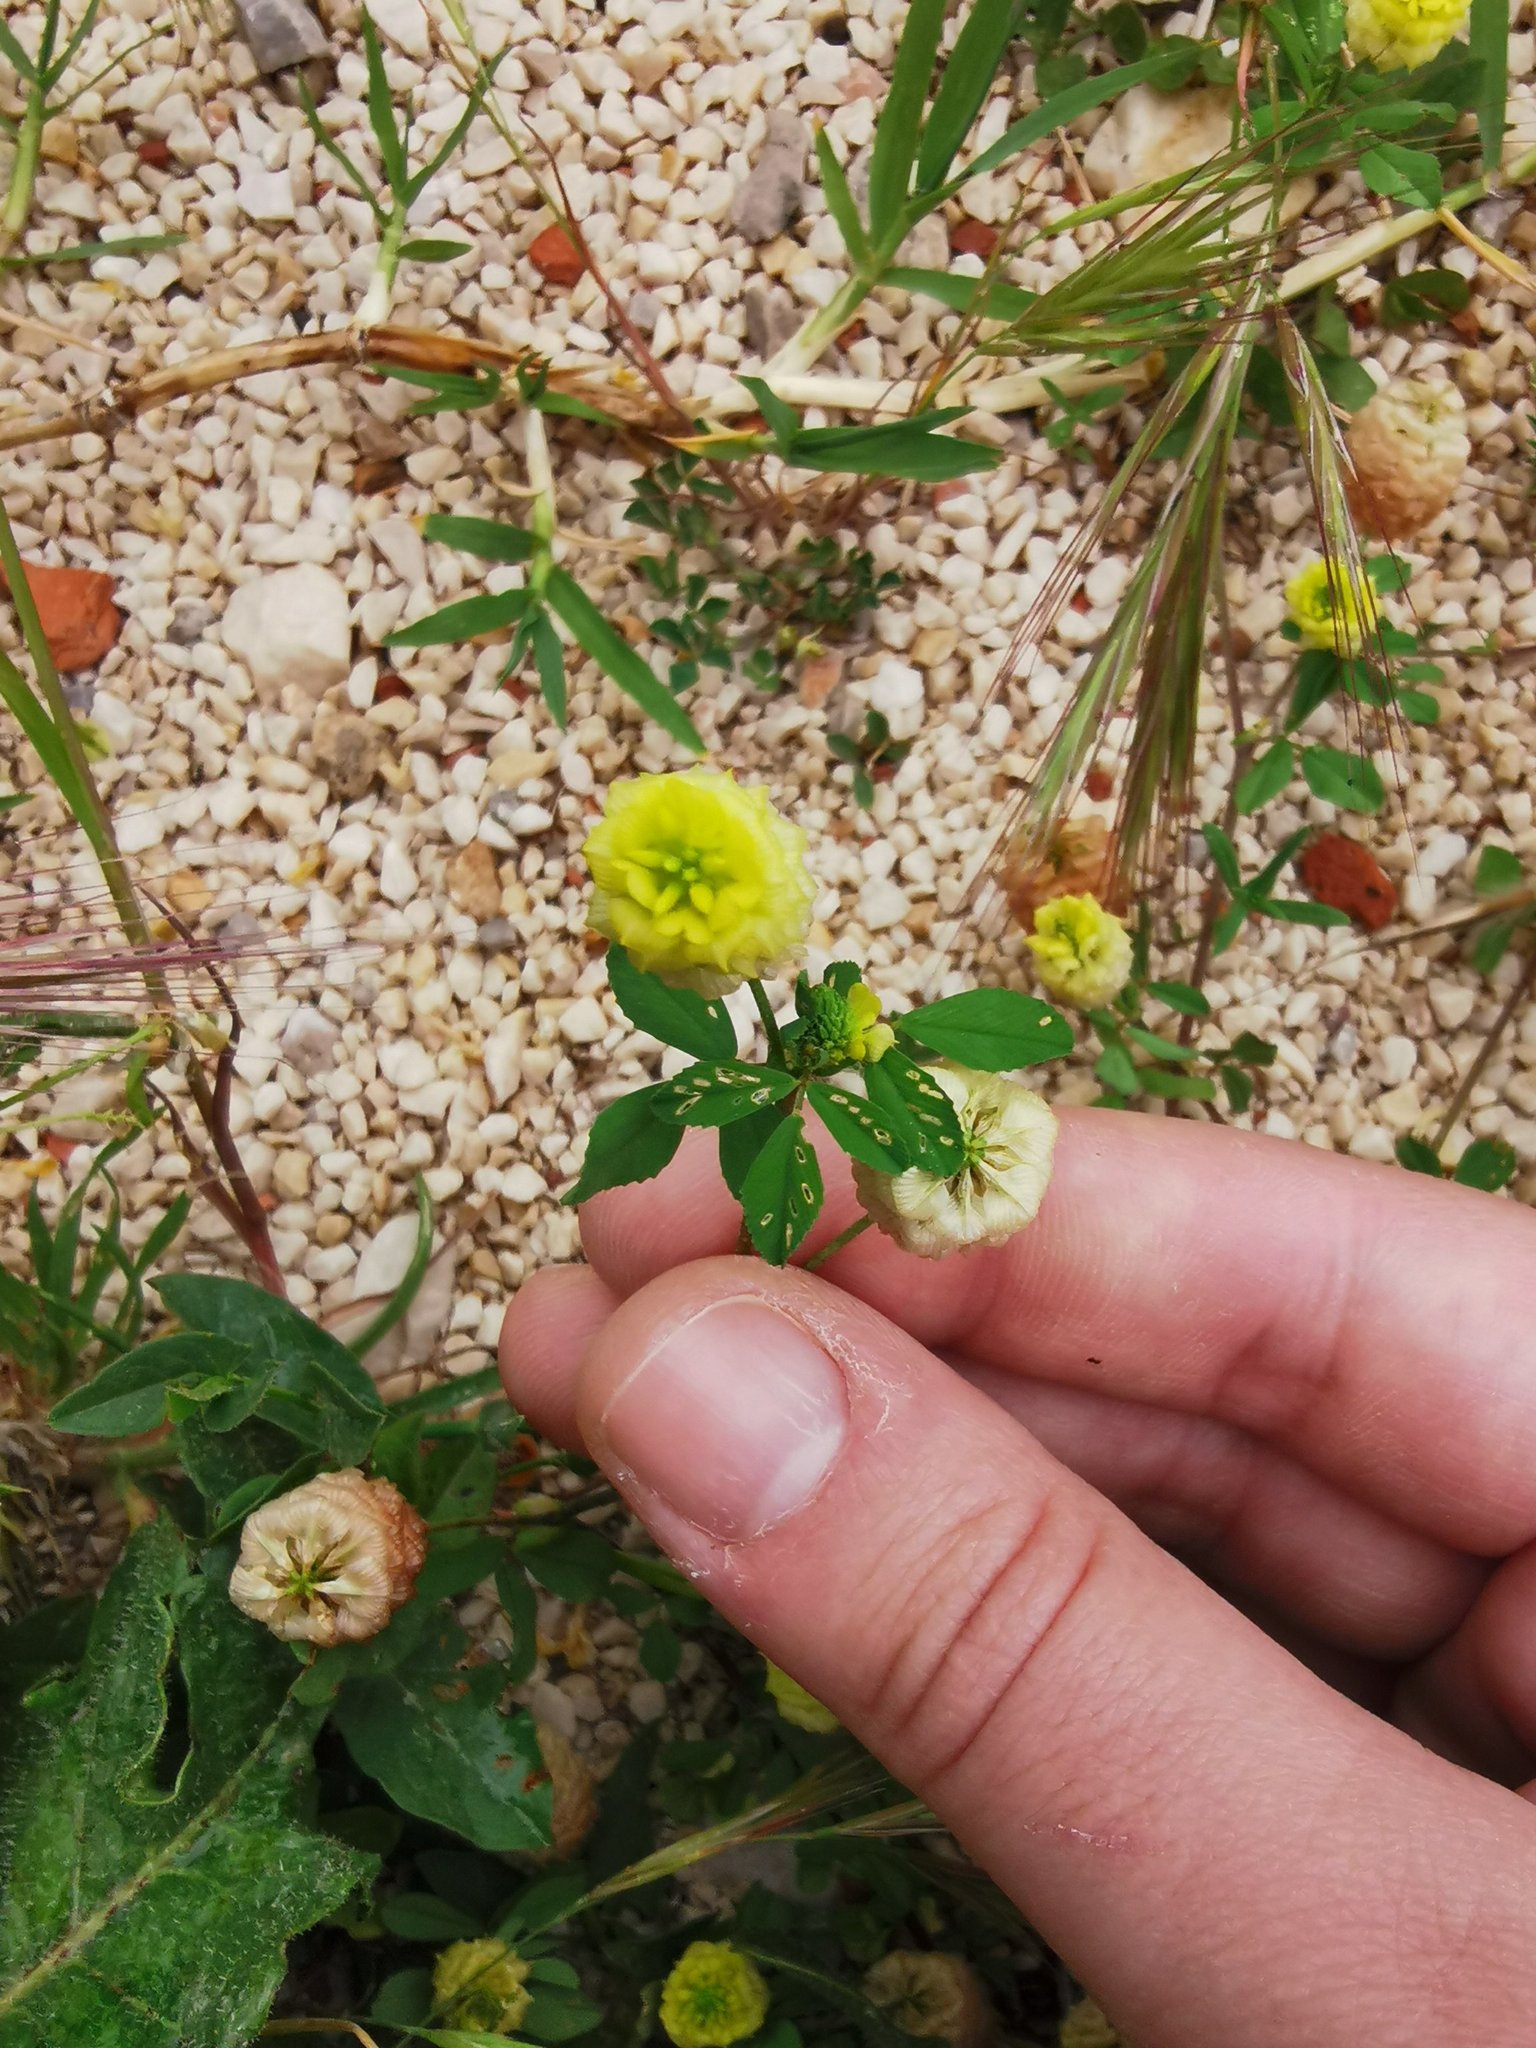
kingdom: Plantae
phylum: Tracheophyta
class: Magnoliopsida
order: Fabales
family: Fabaceae
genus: Trifolium
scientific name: Trifolium campestre
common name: Field clover
